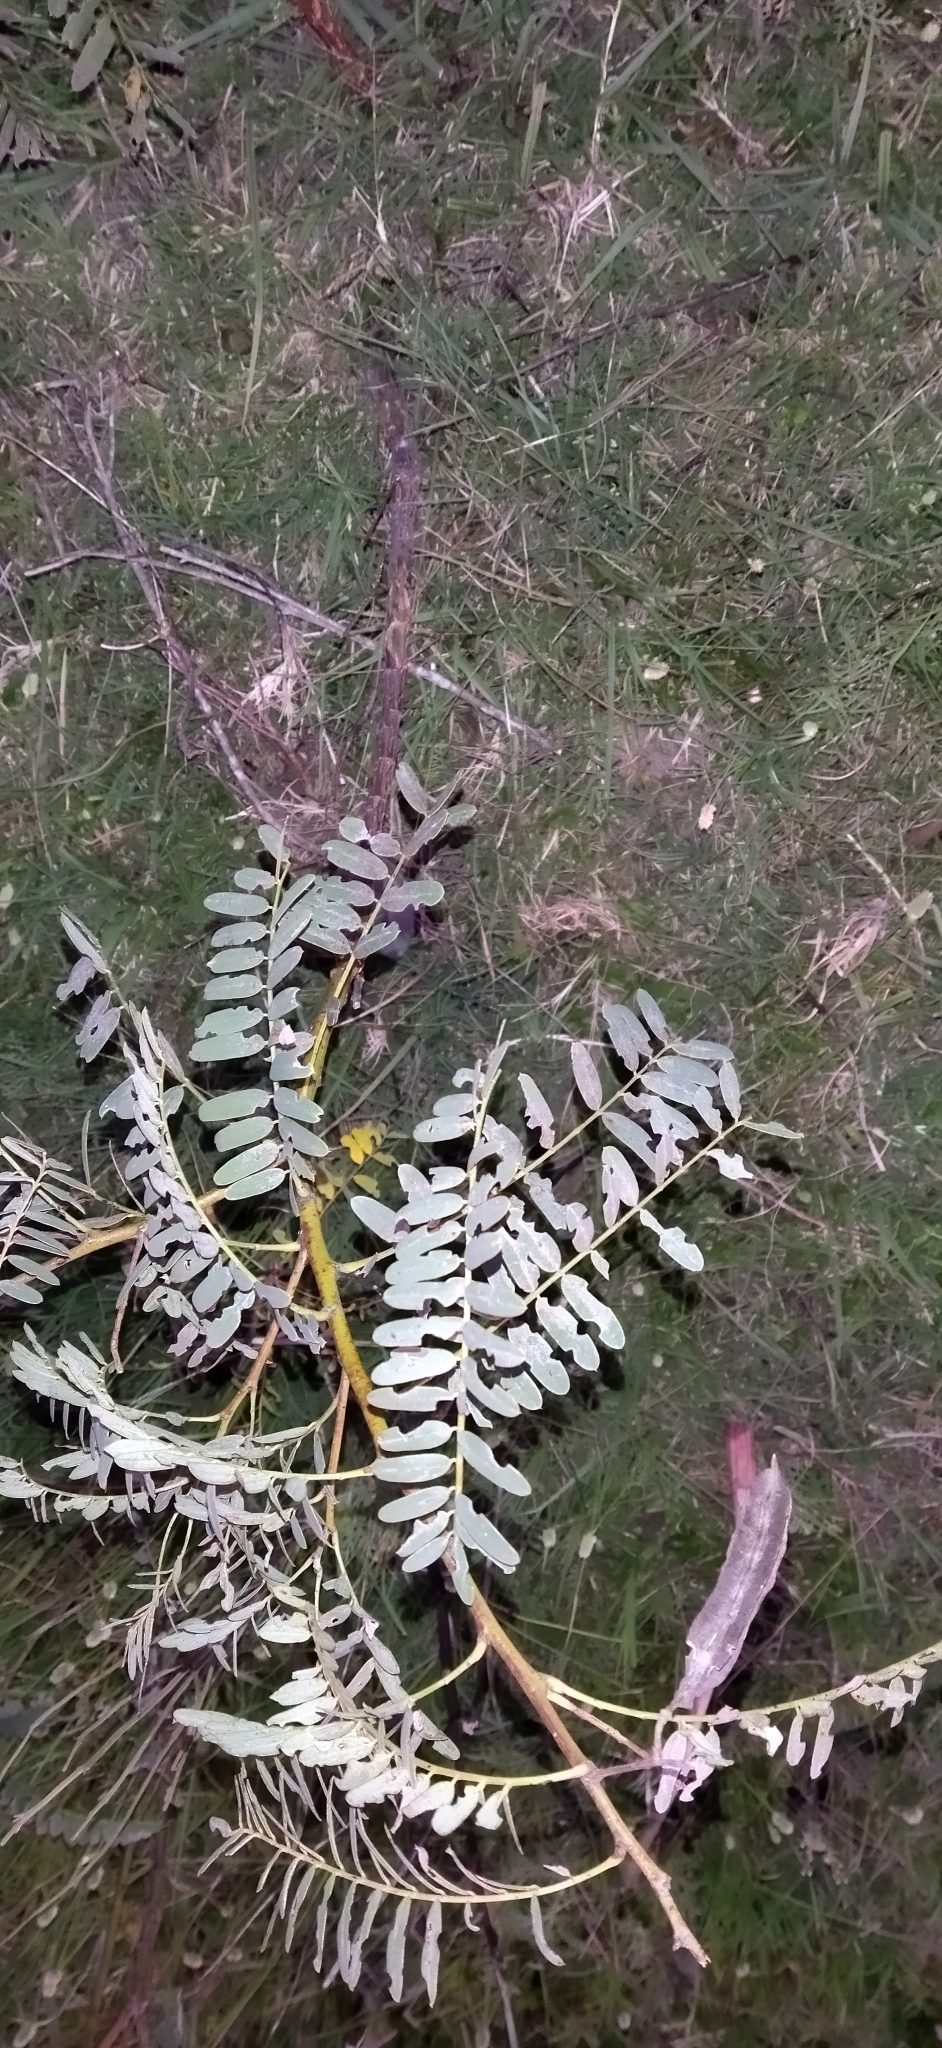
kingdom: Plantae
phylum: Tracheophyta
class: Magnoliopsida
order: Fabales
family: Fabaceae
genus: Sesbania
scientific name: Sesbania punicea
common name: Rattlebox
